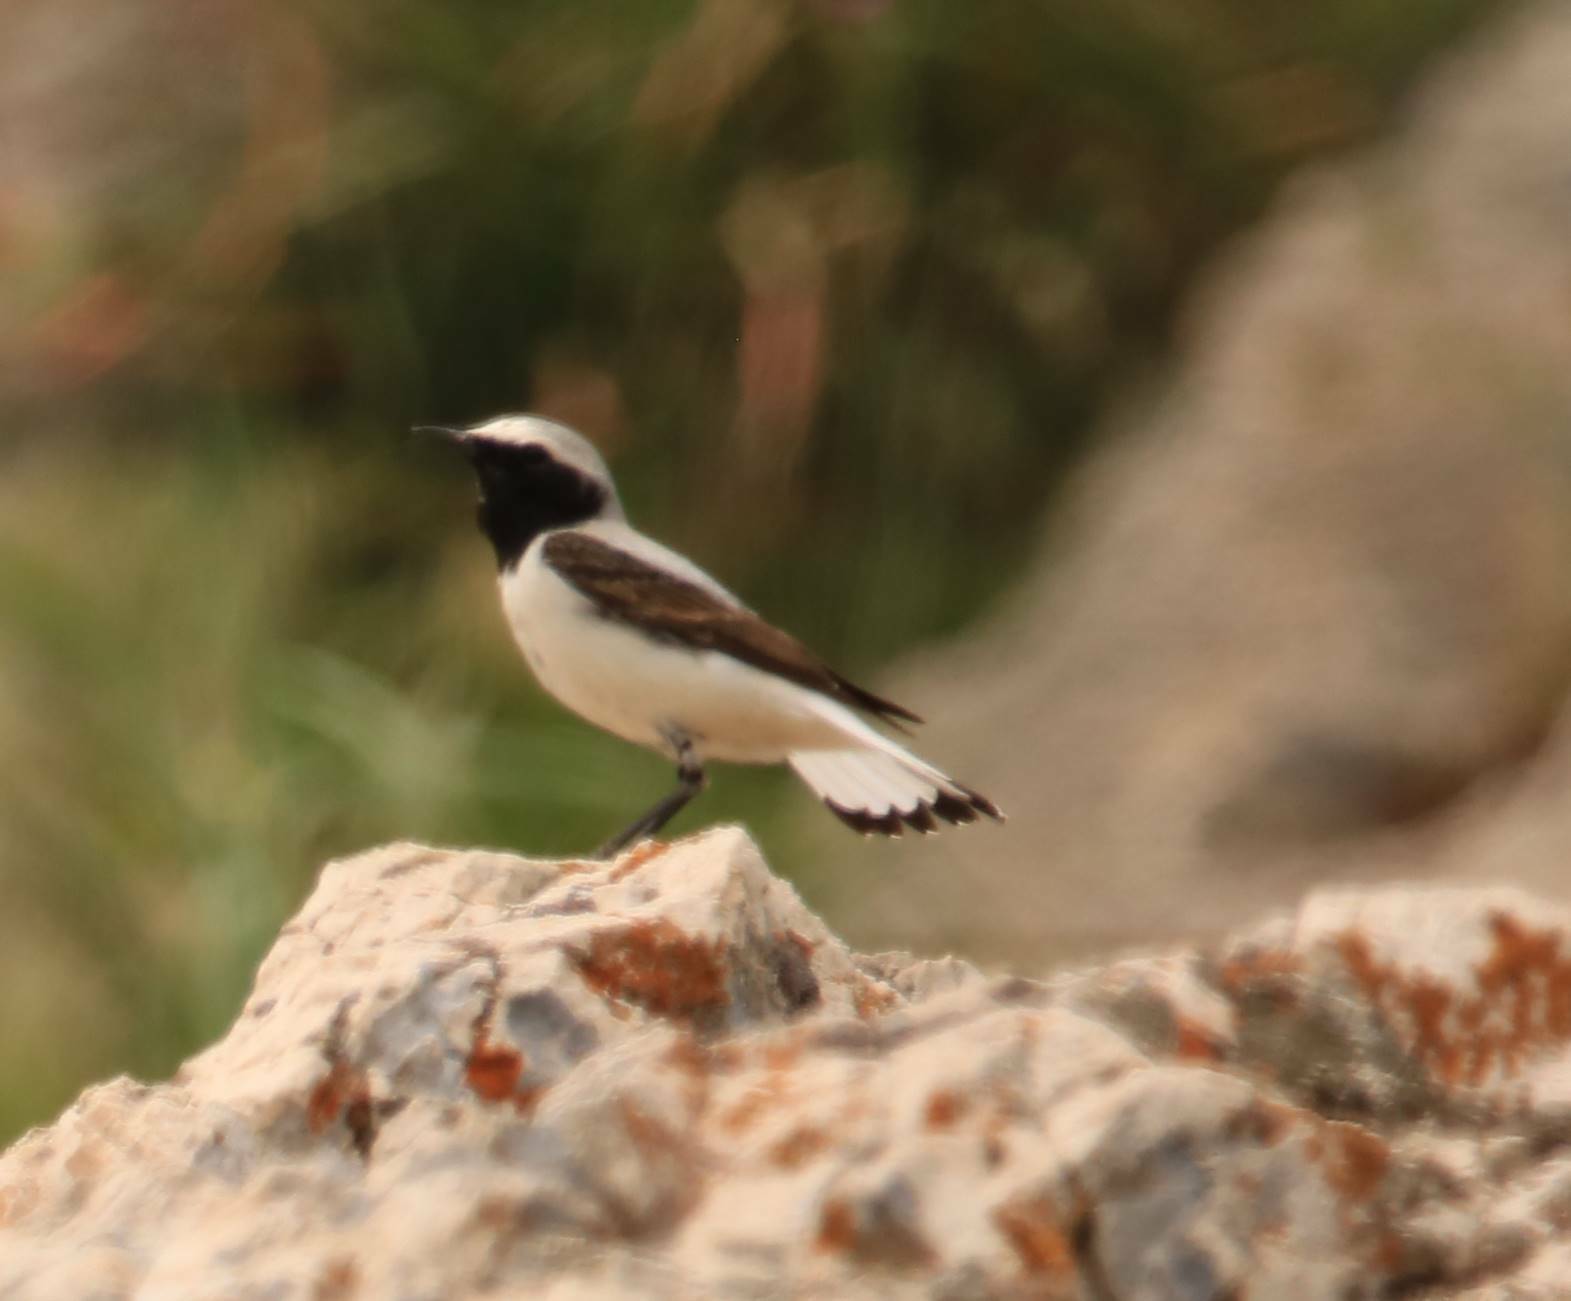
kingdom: Animalia
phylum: Chordata
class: Aves
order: Passeriformes
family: Muscicapidae
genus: Oenanthe
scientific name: Oenanthe oenanthe
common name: Northern wheatear
